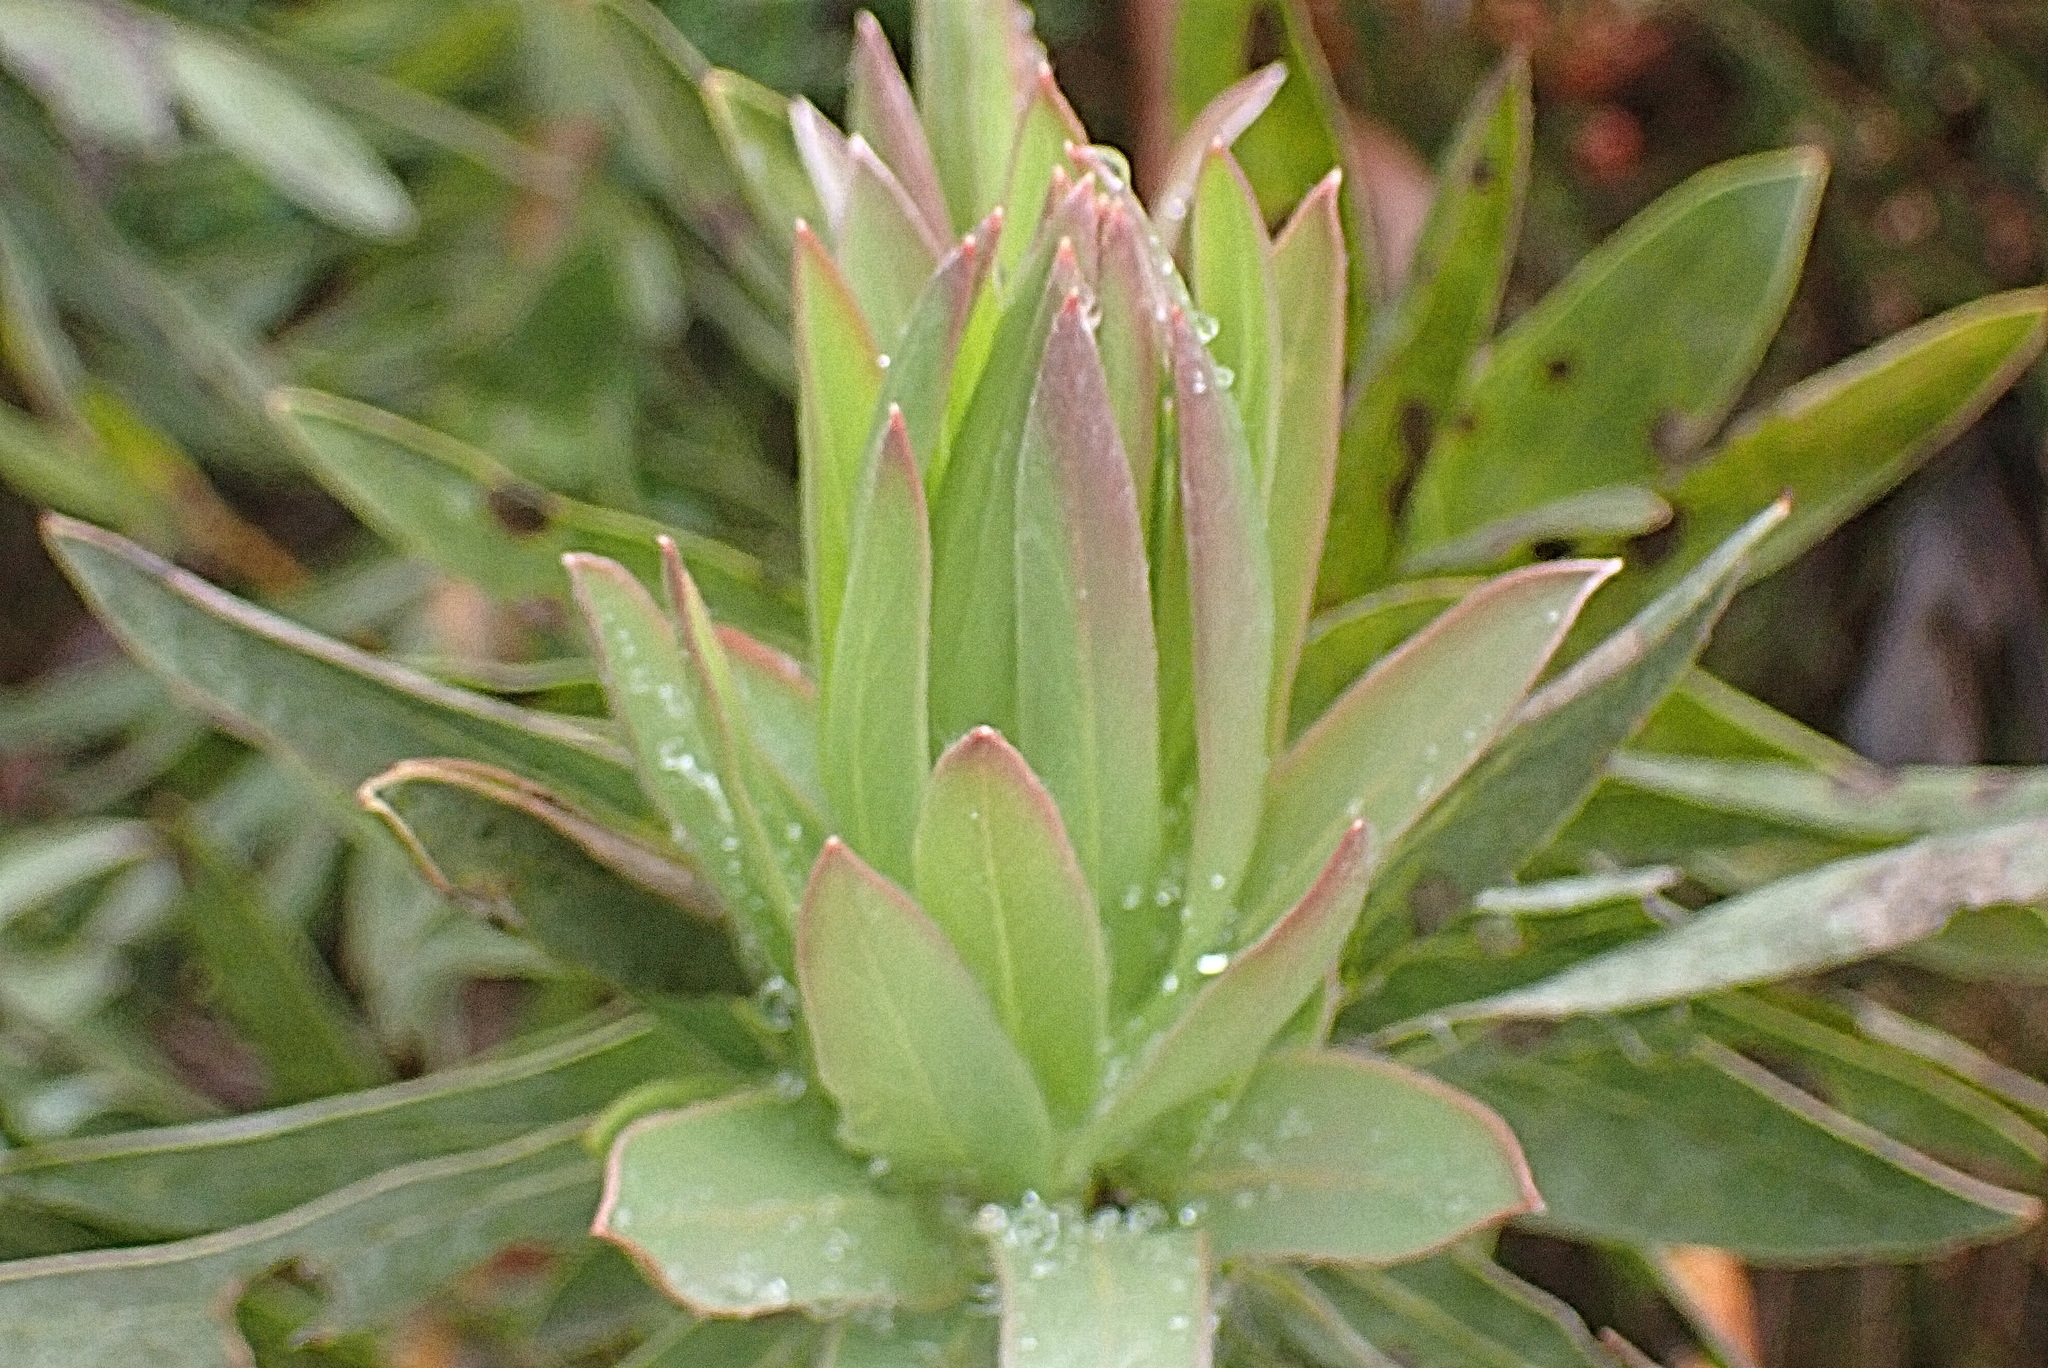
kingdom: Plantae
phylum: Tracheophyta
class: Magnoliopsida
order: Proteales
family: Proteaceae
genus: Protea
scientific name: Protea coronata
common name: Green sugarbush
